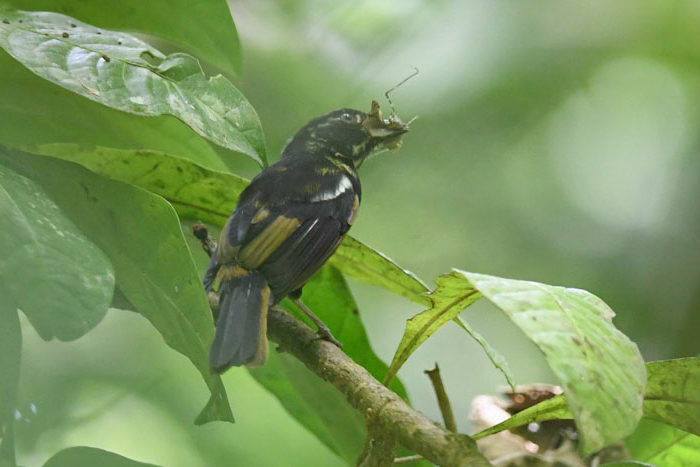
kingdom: Animalia
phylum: Chordata
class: Aves
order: Passeriformes
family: Thraupidae
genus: Loriotus
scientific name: Loriotus luctuosus
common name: White-shouldered tanager
